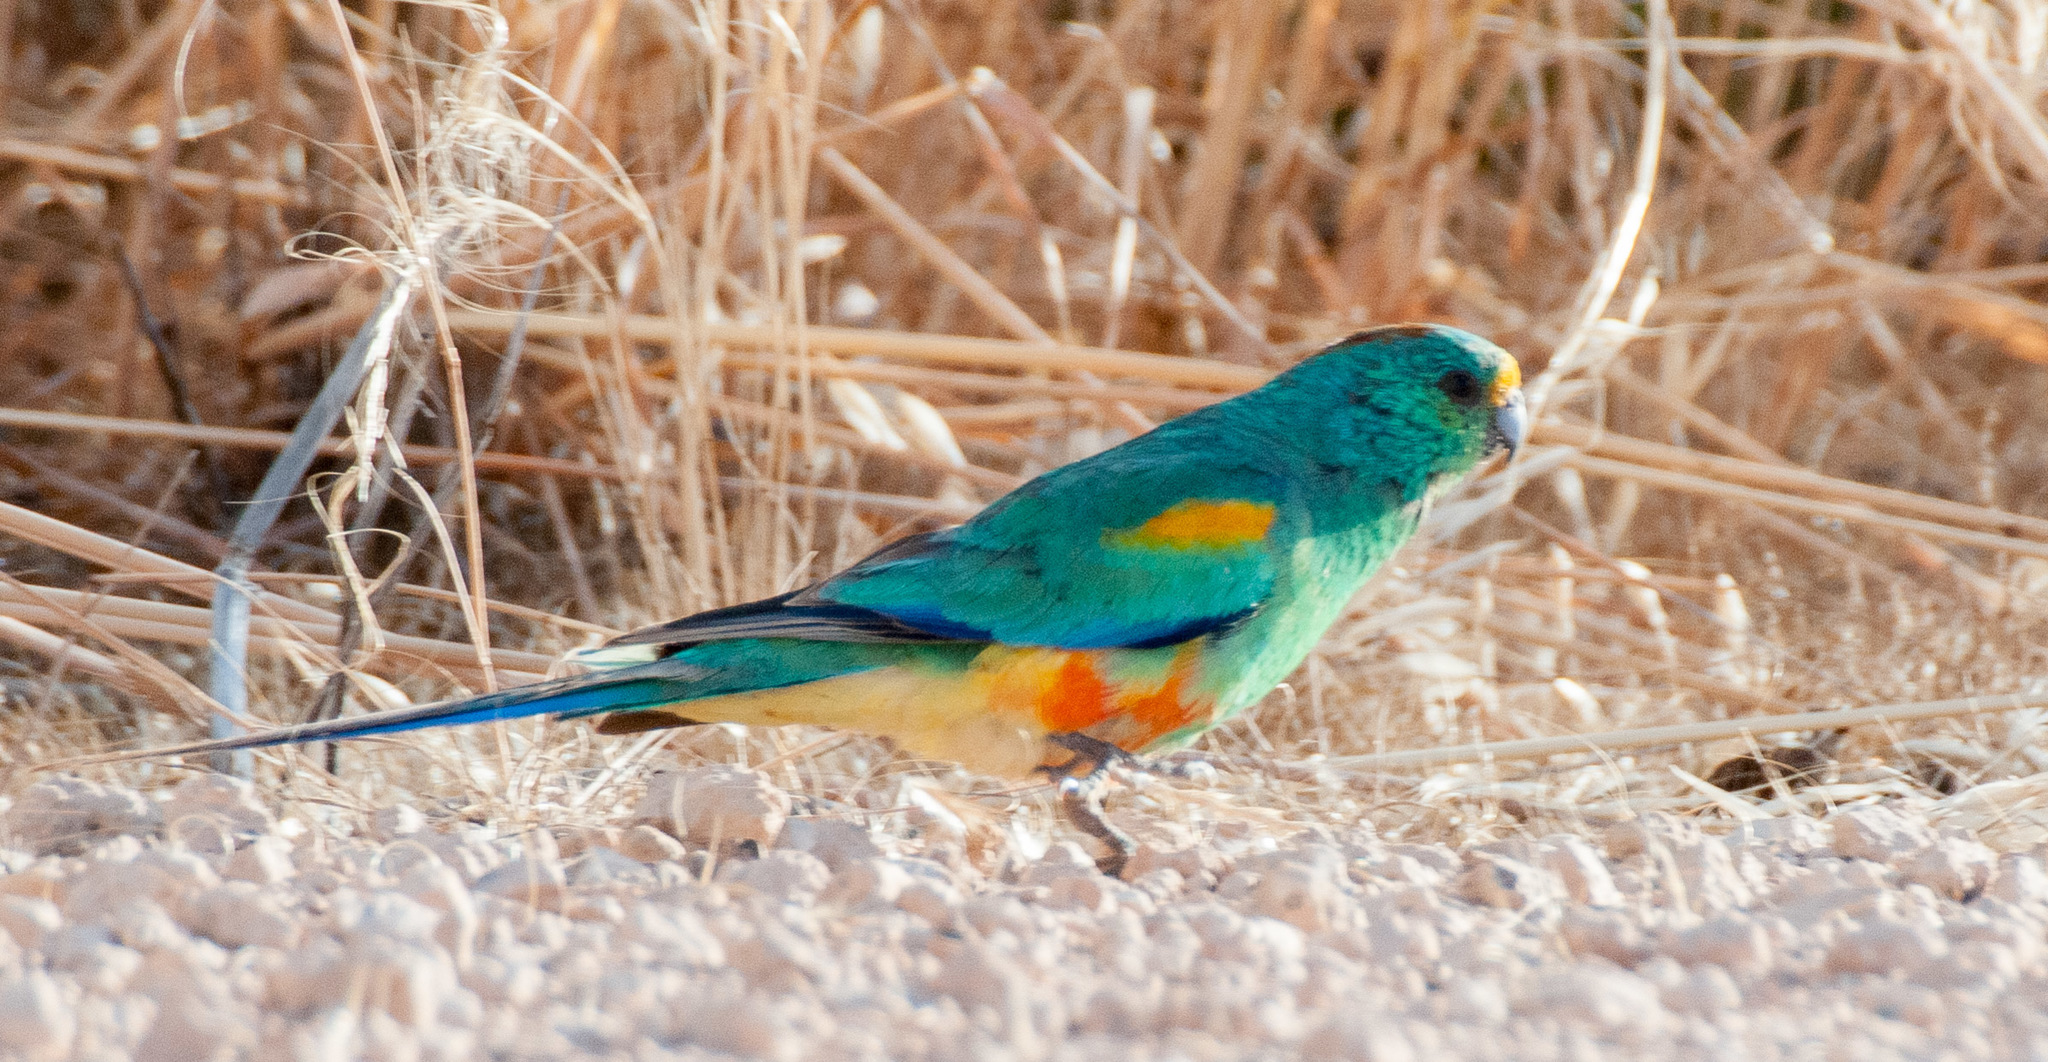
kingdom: Animalia
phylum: Chordata
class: Aves
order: Psittaciformes
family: Psittaculidae
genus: Psephotellus
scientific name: Psephotellus varius
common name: Mulga parrot
